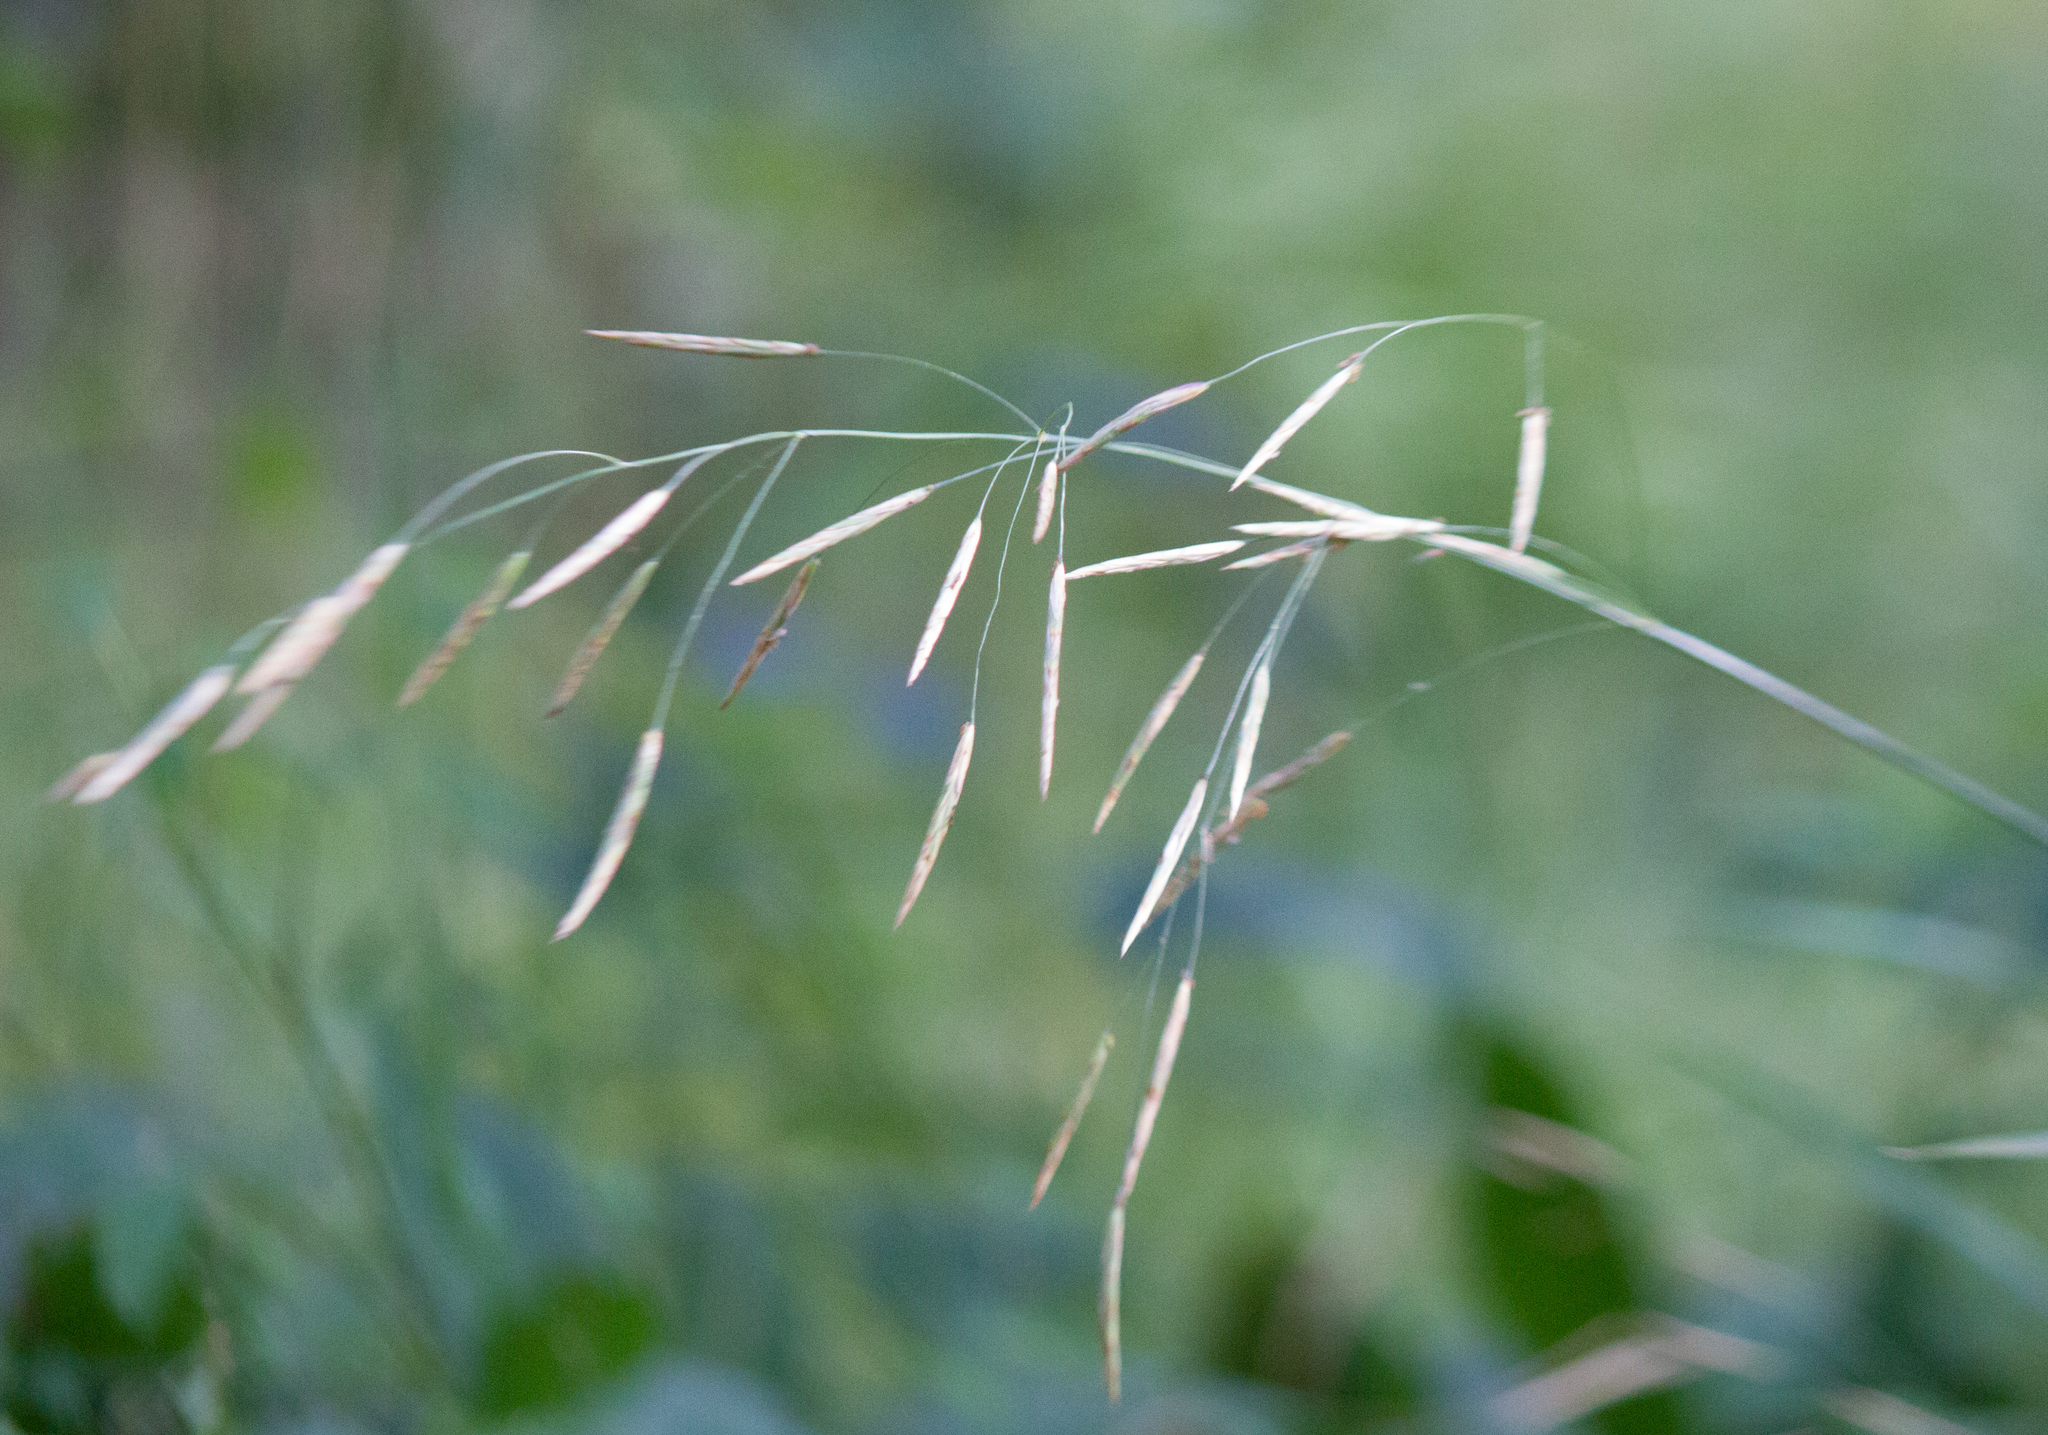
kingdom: Plantae
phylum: Tracheophyta
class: Liliopsida
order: Poales
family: Poaceae
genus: Bromus
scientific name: Bromus inermis
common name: Smooth brome
